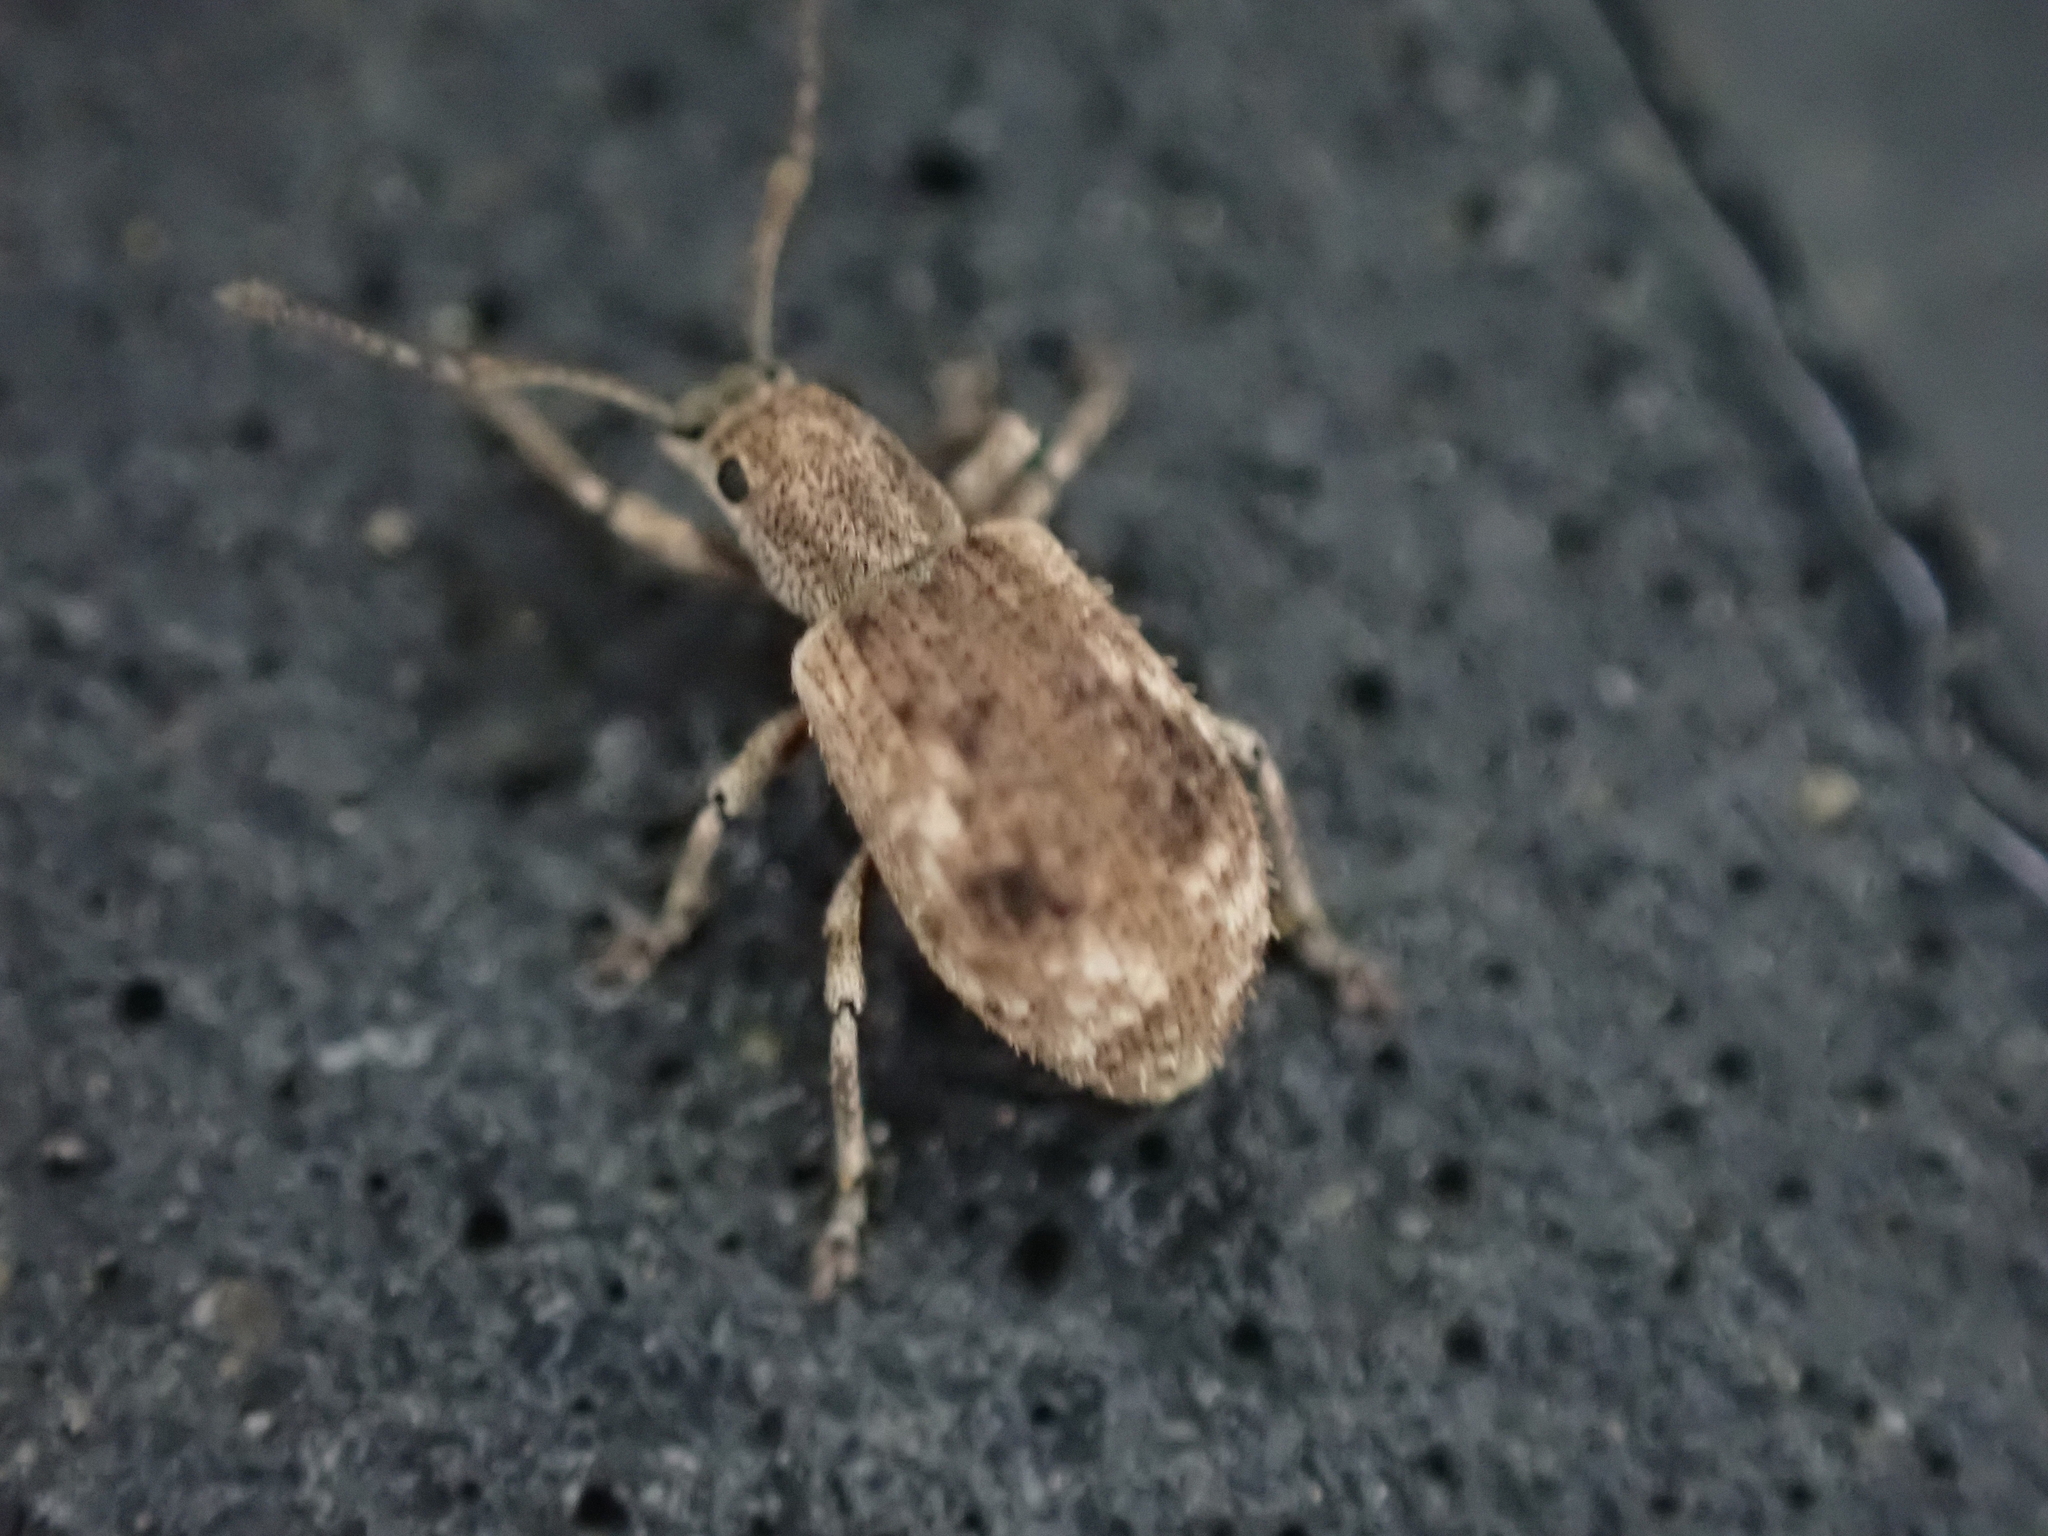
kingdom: Animalia
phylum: Arthropoda
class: Insecta
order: Coleoptera
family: Curculionidae
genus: Pseudoedophrys
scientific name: Pseudoedophrys hilleri
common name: Weevil
